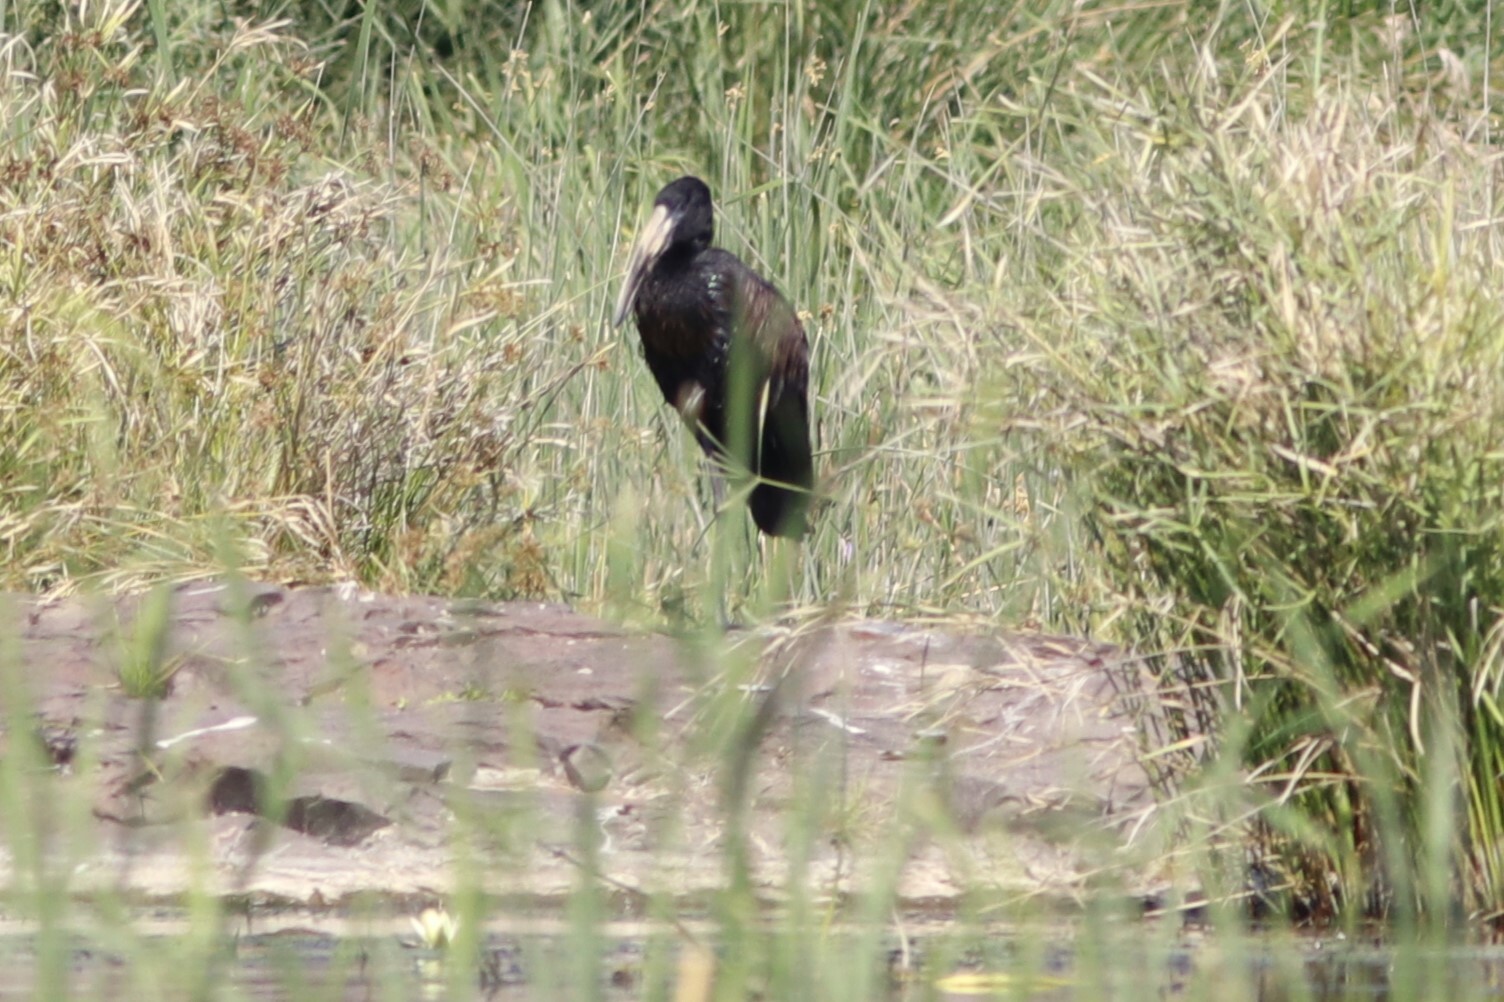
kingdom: Animalia
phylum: Chordata
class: Aves
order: Ciconiiformes
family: Ciconiidae
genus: Anastomus
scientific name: Anastomus lamelligerus
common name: African openbill
